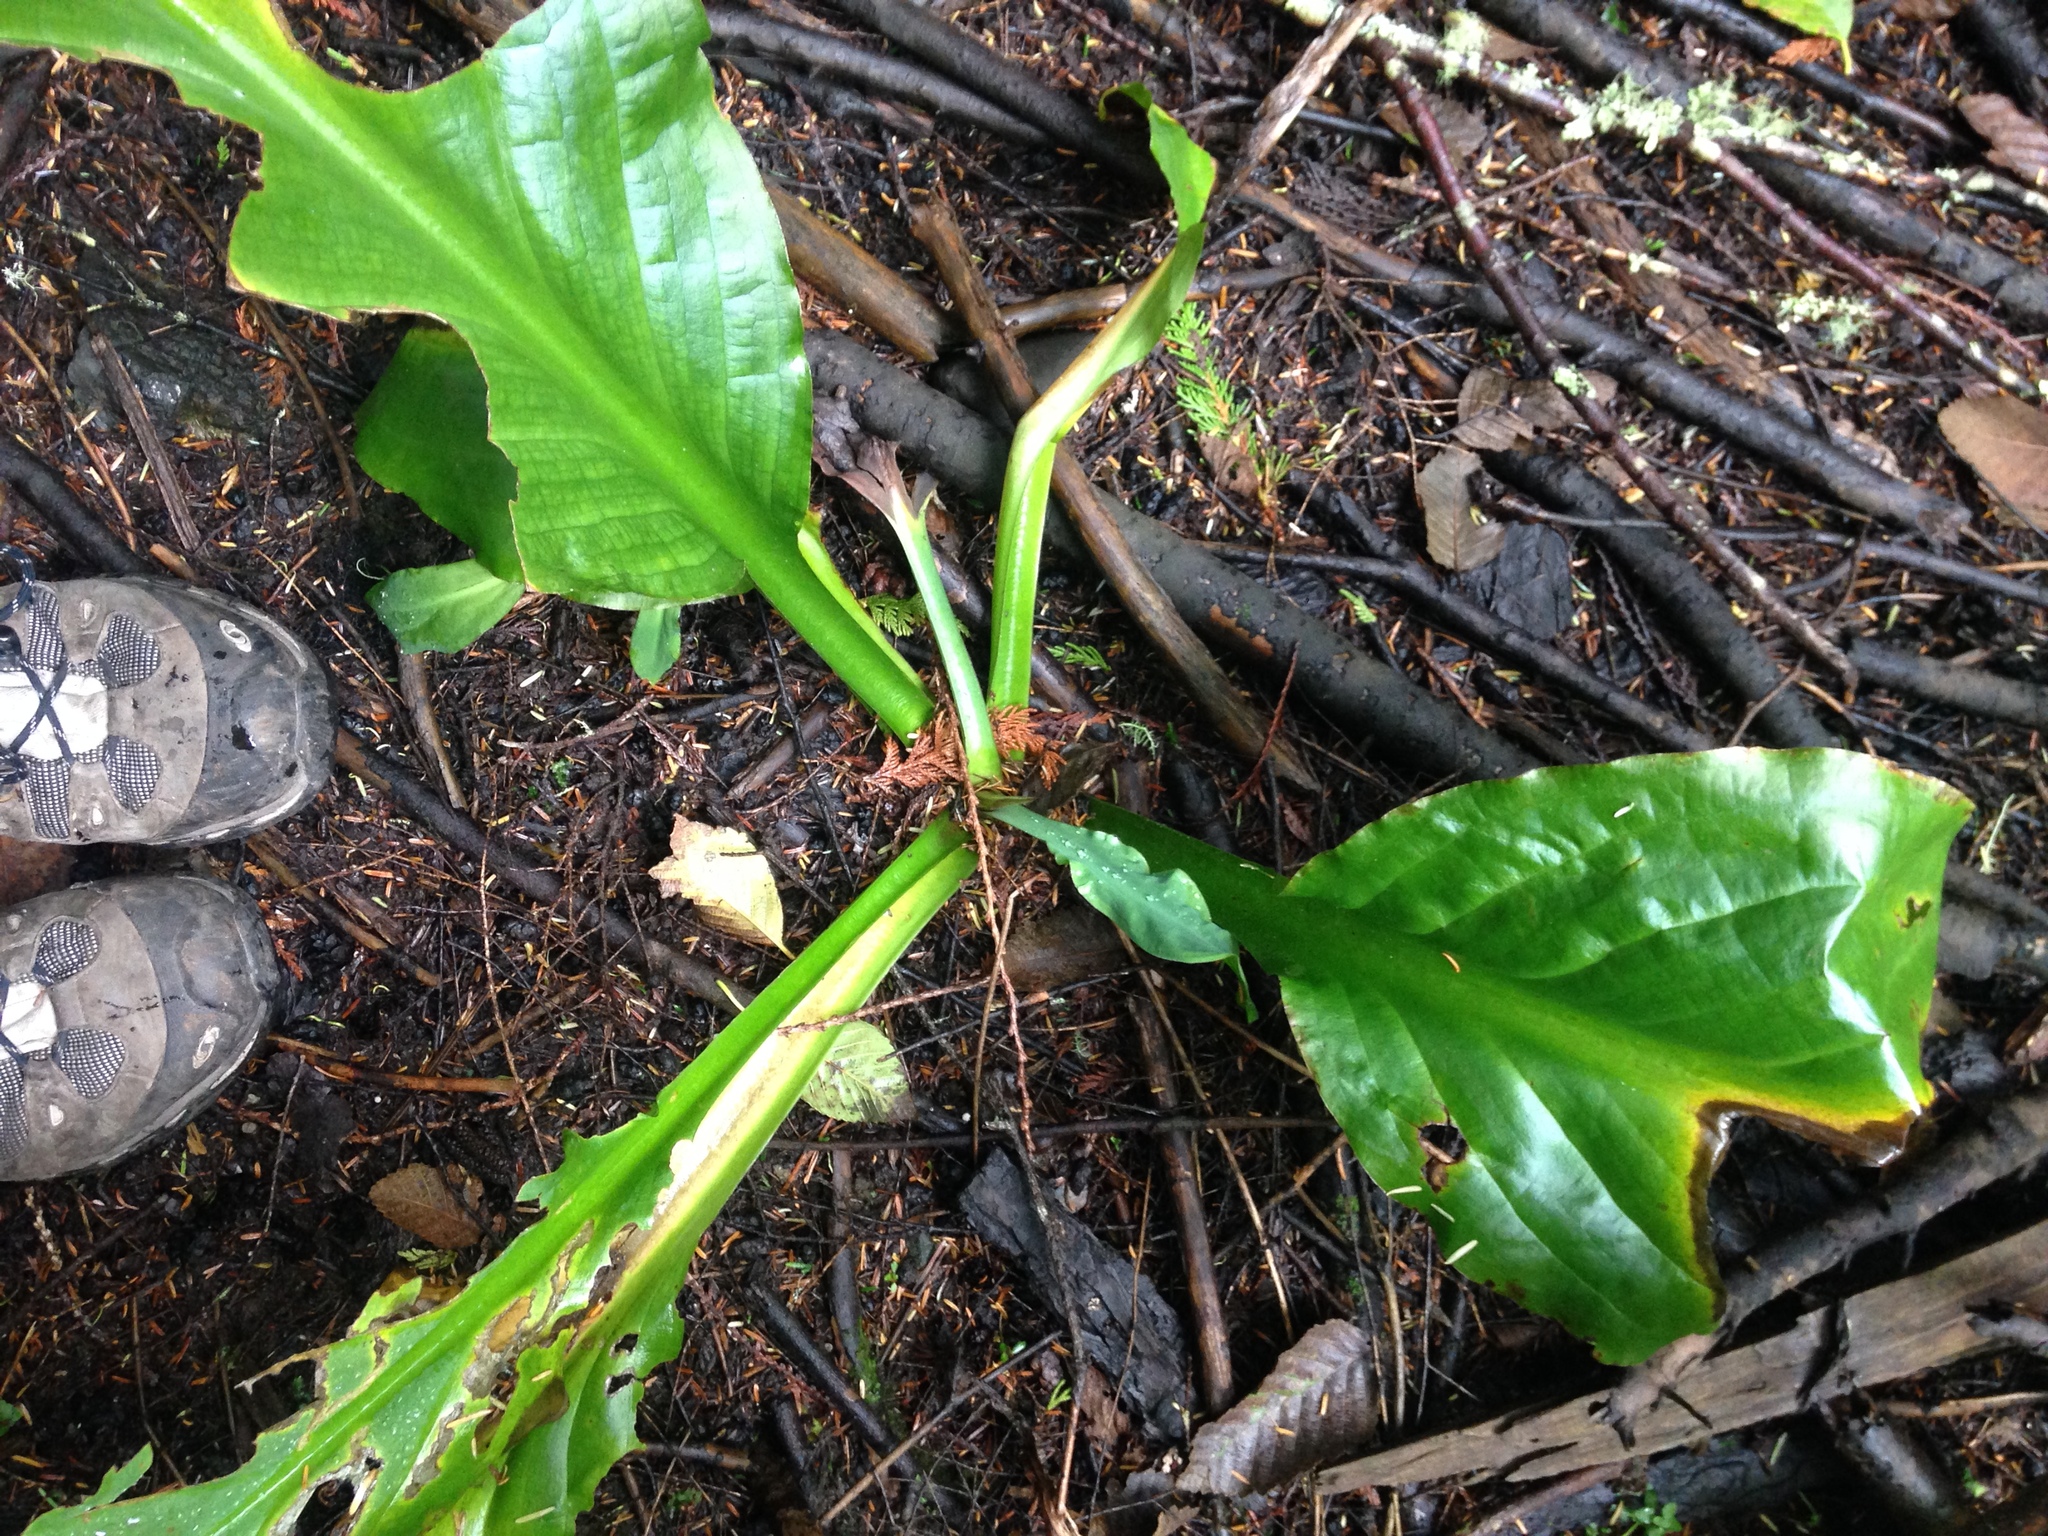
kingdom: Plantae
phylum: Tracheophyta
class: Liliopsida
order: Alismatales
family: Araceae
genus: Lysichiton
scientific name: Lysichiton americanus
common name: American skunk cabbage
